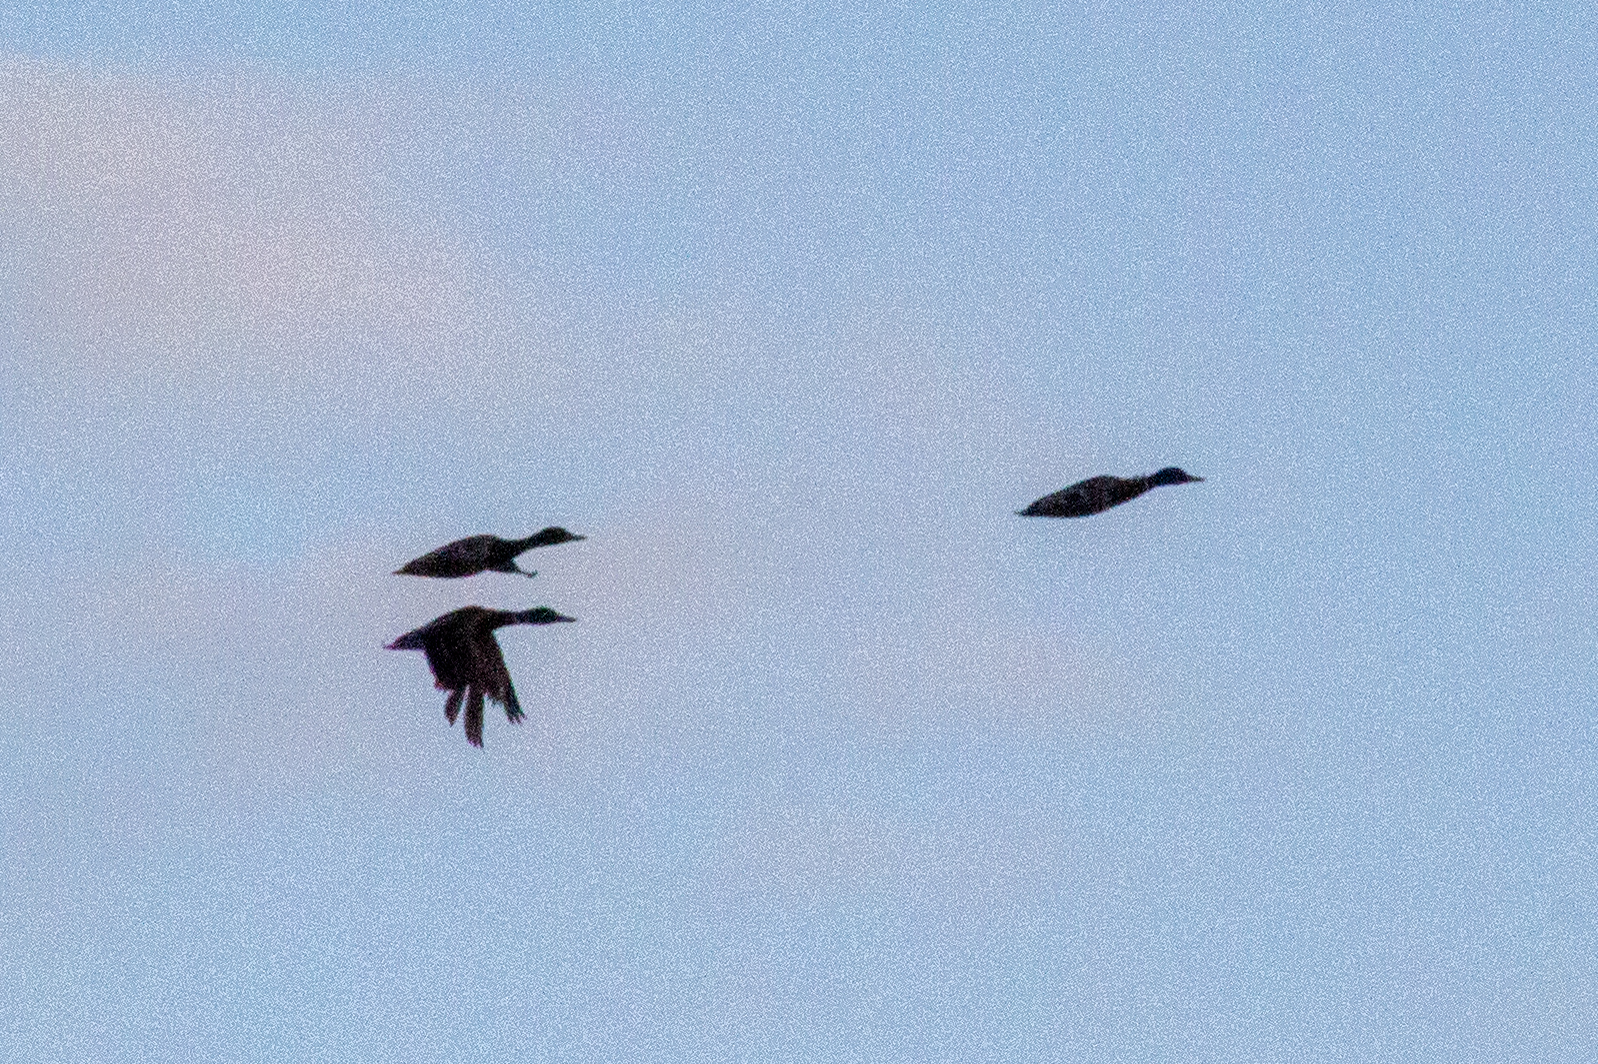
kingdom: Animalia
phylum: Chordata
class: Aves
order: Anseriformes
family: Anatidae
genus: Anas
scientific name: Anas platyrhynchos
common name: Mallard
